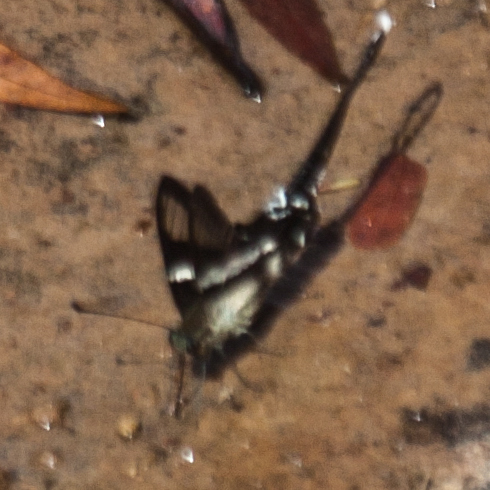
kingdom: Animalia
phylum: Arthropoda
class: Insecta
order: Lepidoptera
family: Papilionidae
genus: Lamproptera
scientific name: Lamproptera curius
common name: White dragontail
